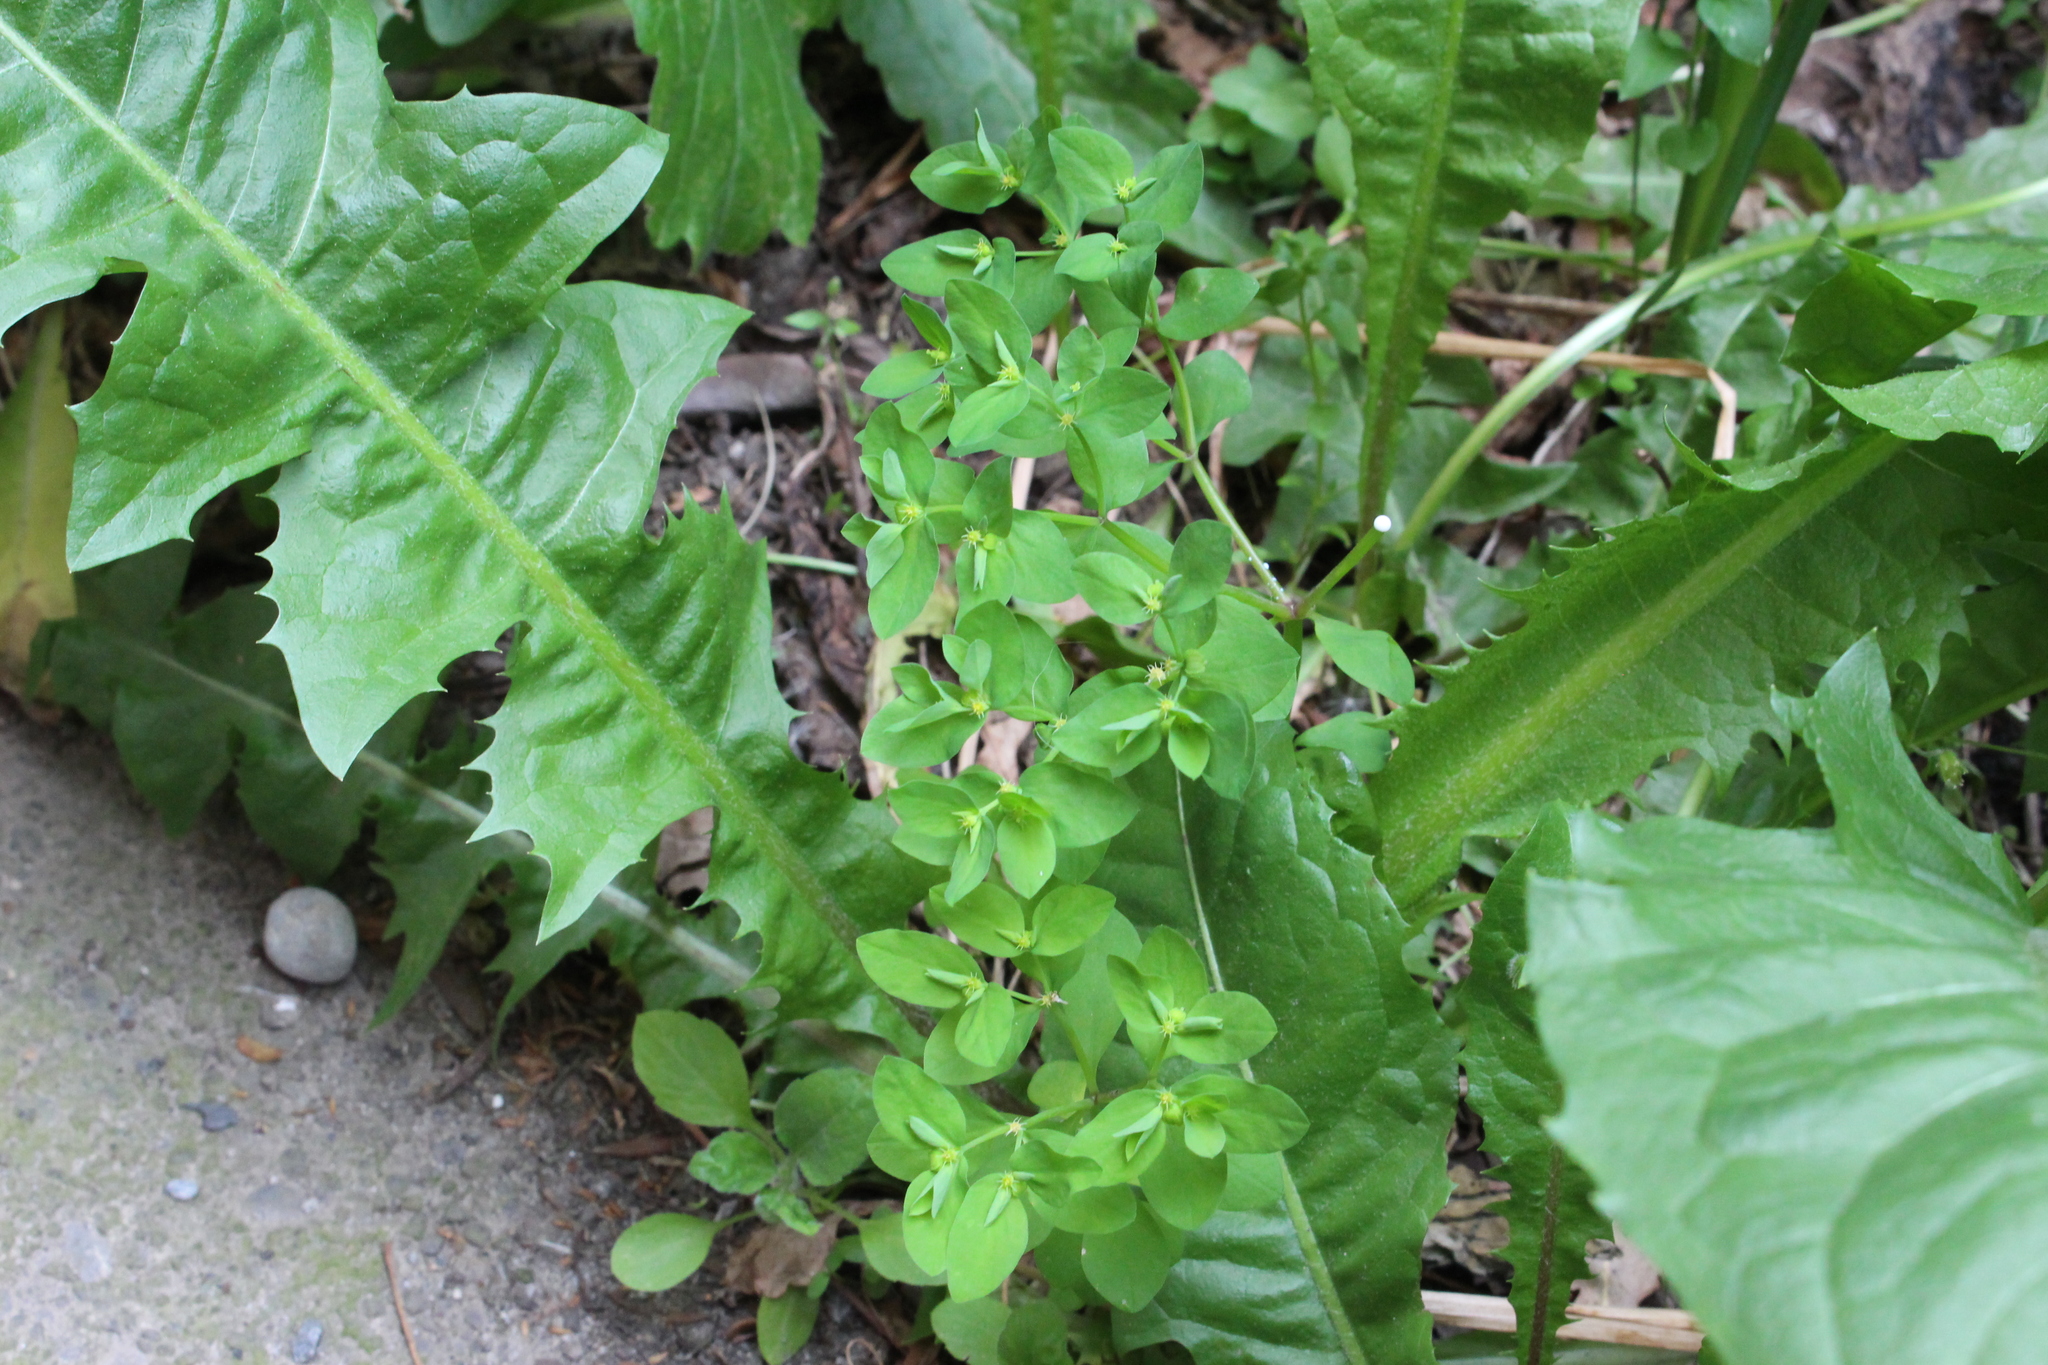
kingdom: Plantae
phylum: Tracheophyta
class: Magnoliopsida
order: Malpighiales
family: Euphorbiaceae
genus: Euphorbia
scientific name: Euphorbia peplus
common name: Petty spurge
